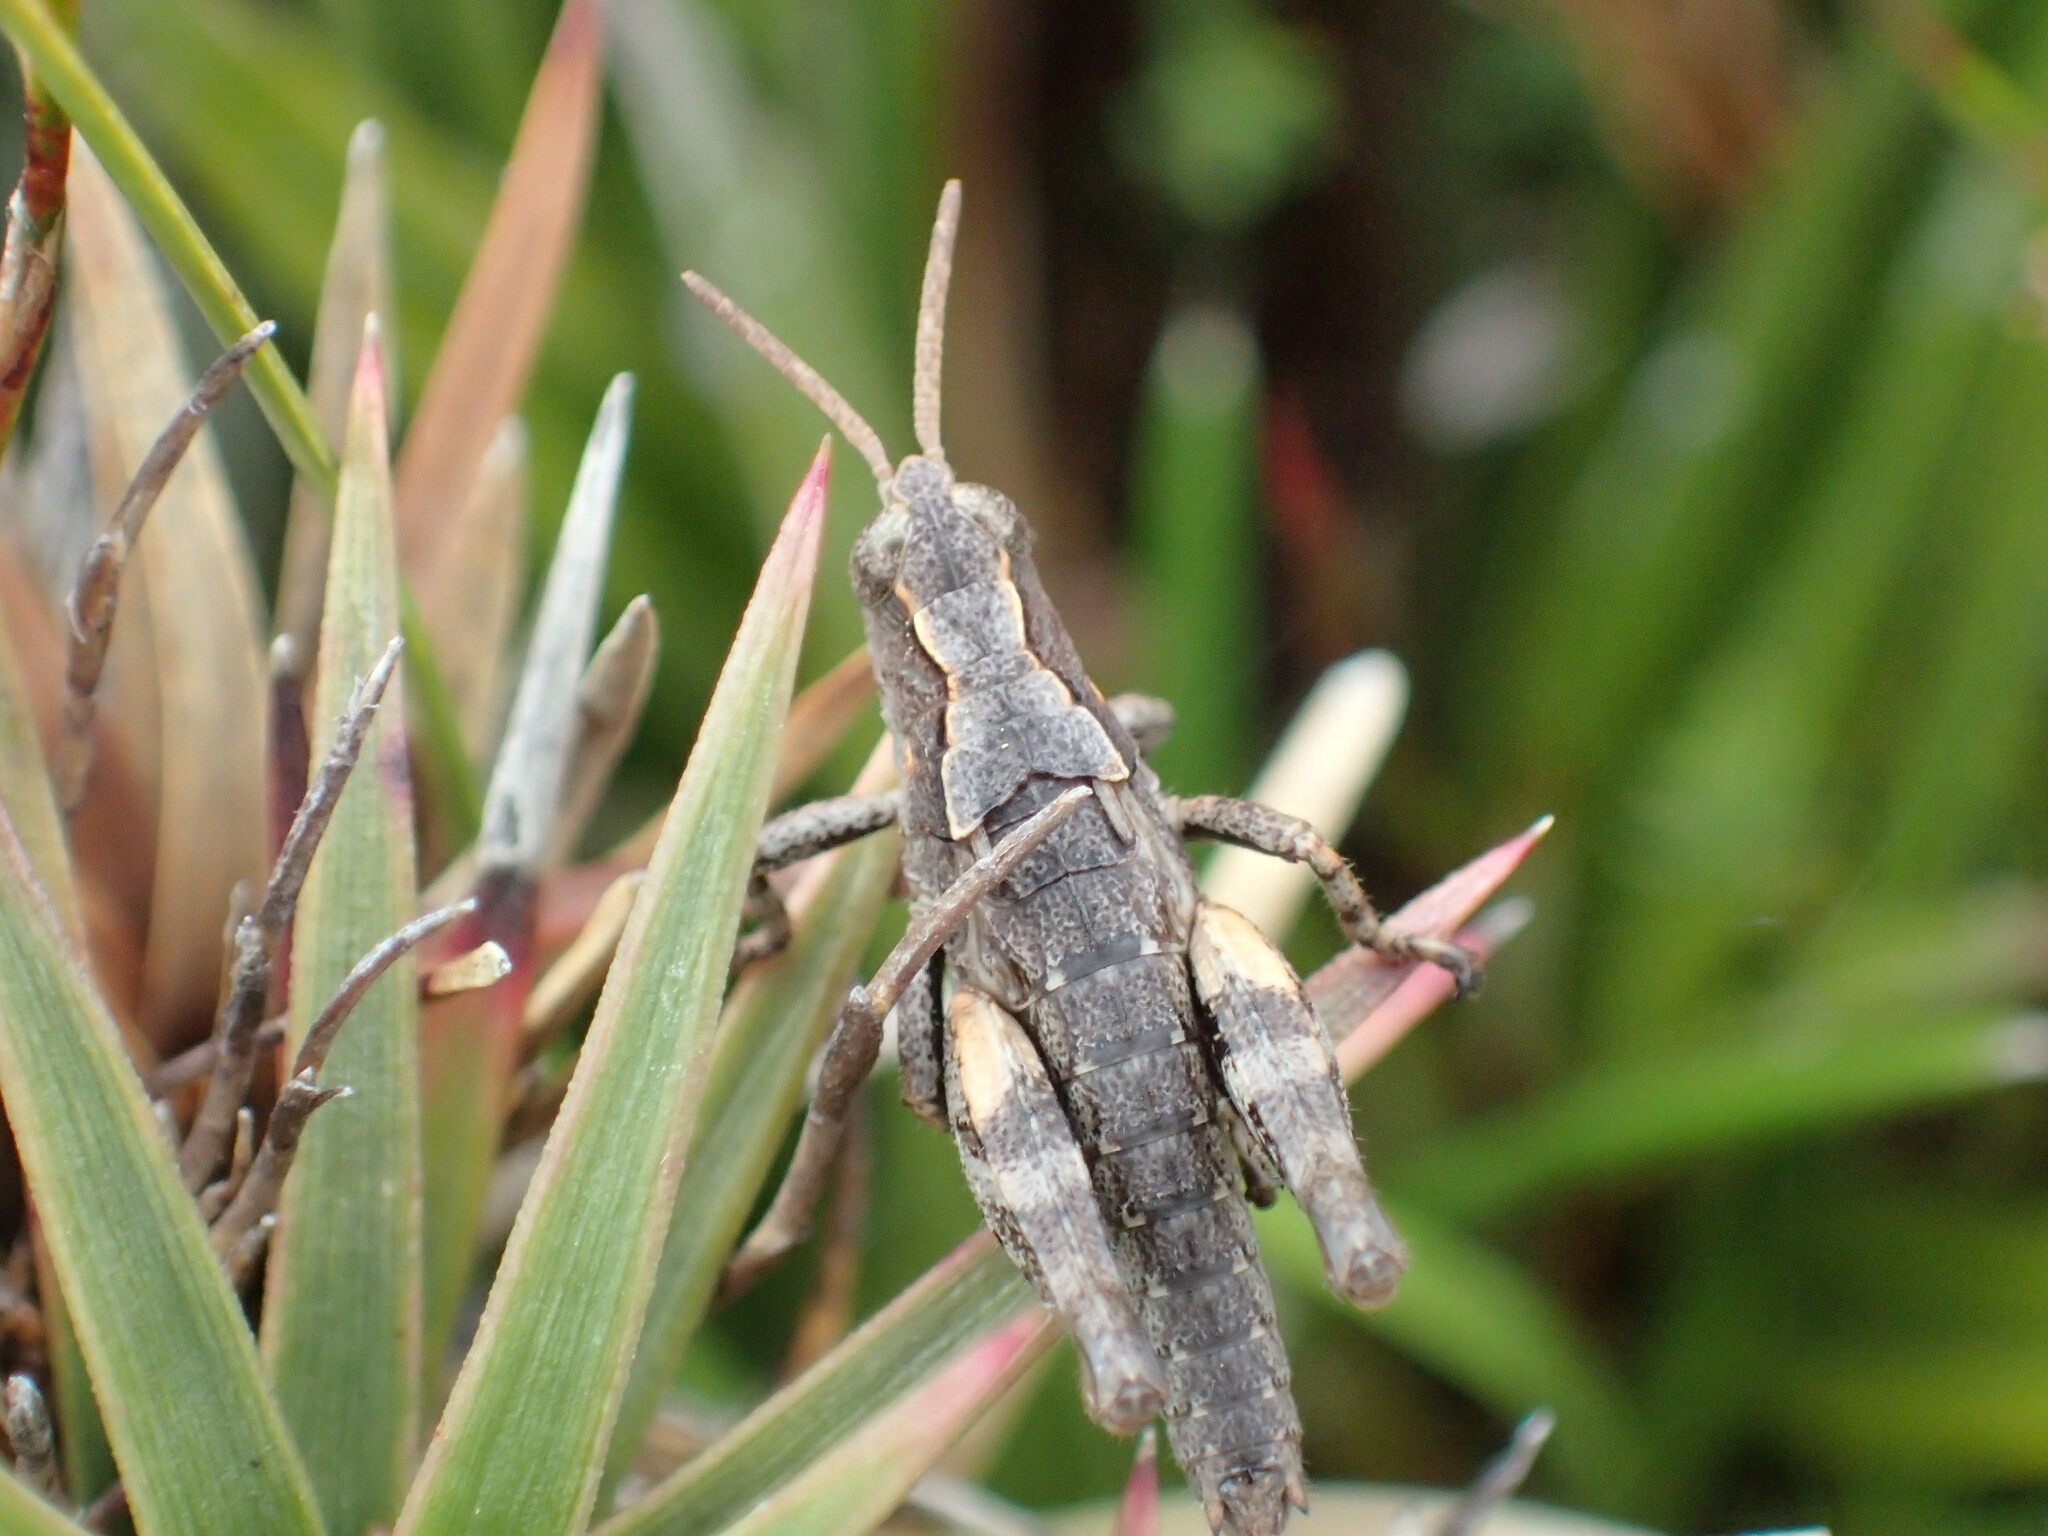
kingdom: Animalia
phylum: Arthropoda
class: Insecta
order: Orthoptera
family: Acrididae
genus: Tasmaniacris
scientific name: Tasmaniacris tasmaniensis
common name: Tasmanian grasshopper
